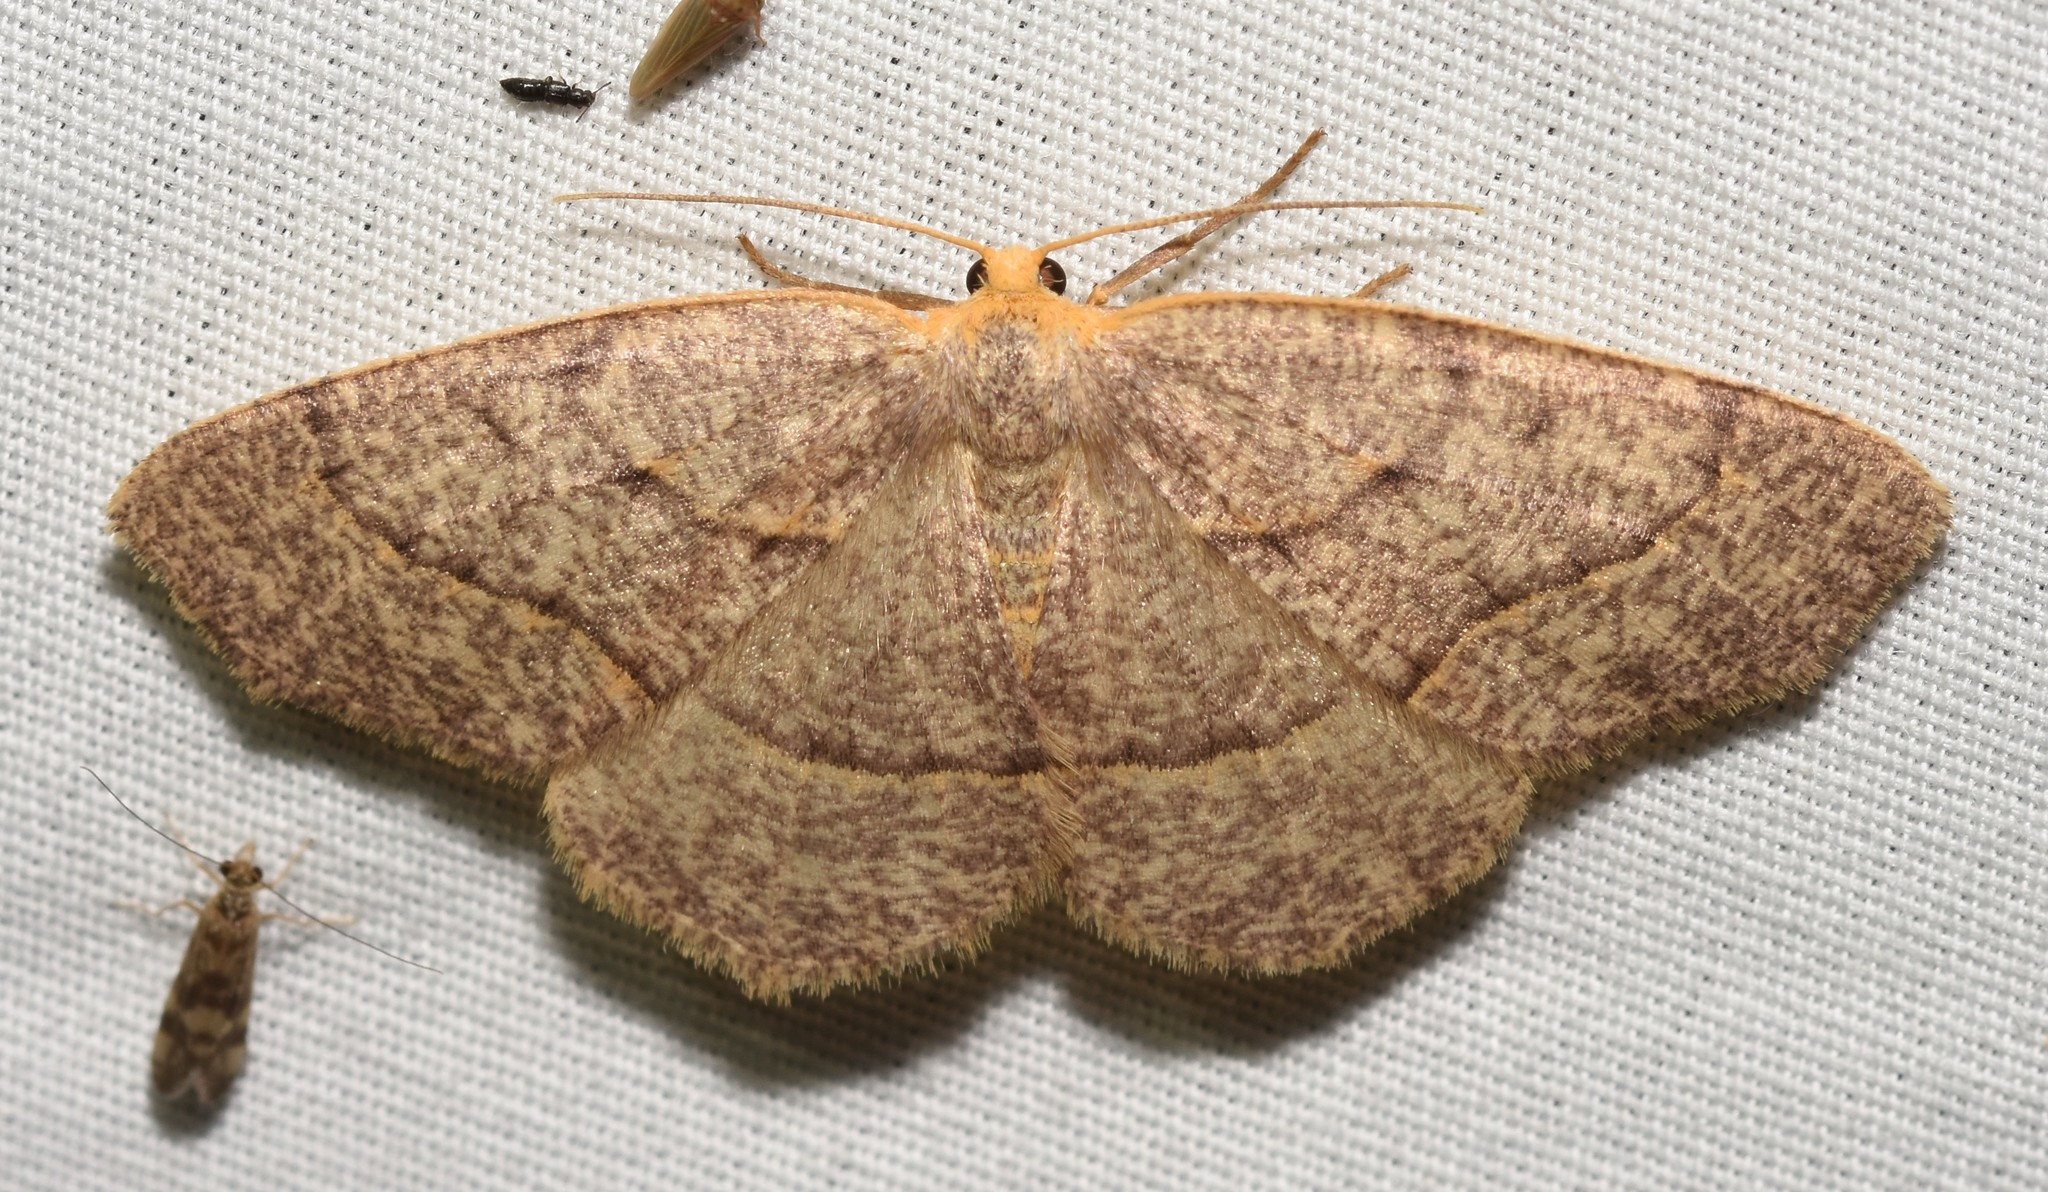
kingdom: Animalia
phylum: Arthropoda
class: Insecta
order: Lepidoptera
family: Geometridae
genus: Lambdina
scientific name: Lambdina fervidaria
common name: Curve-lined looper moth
